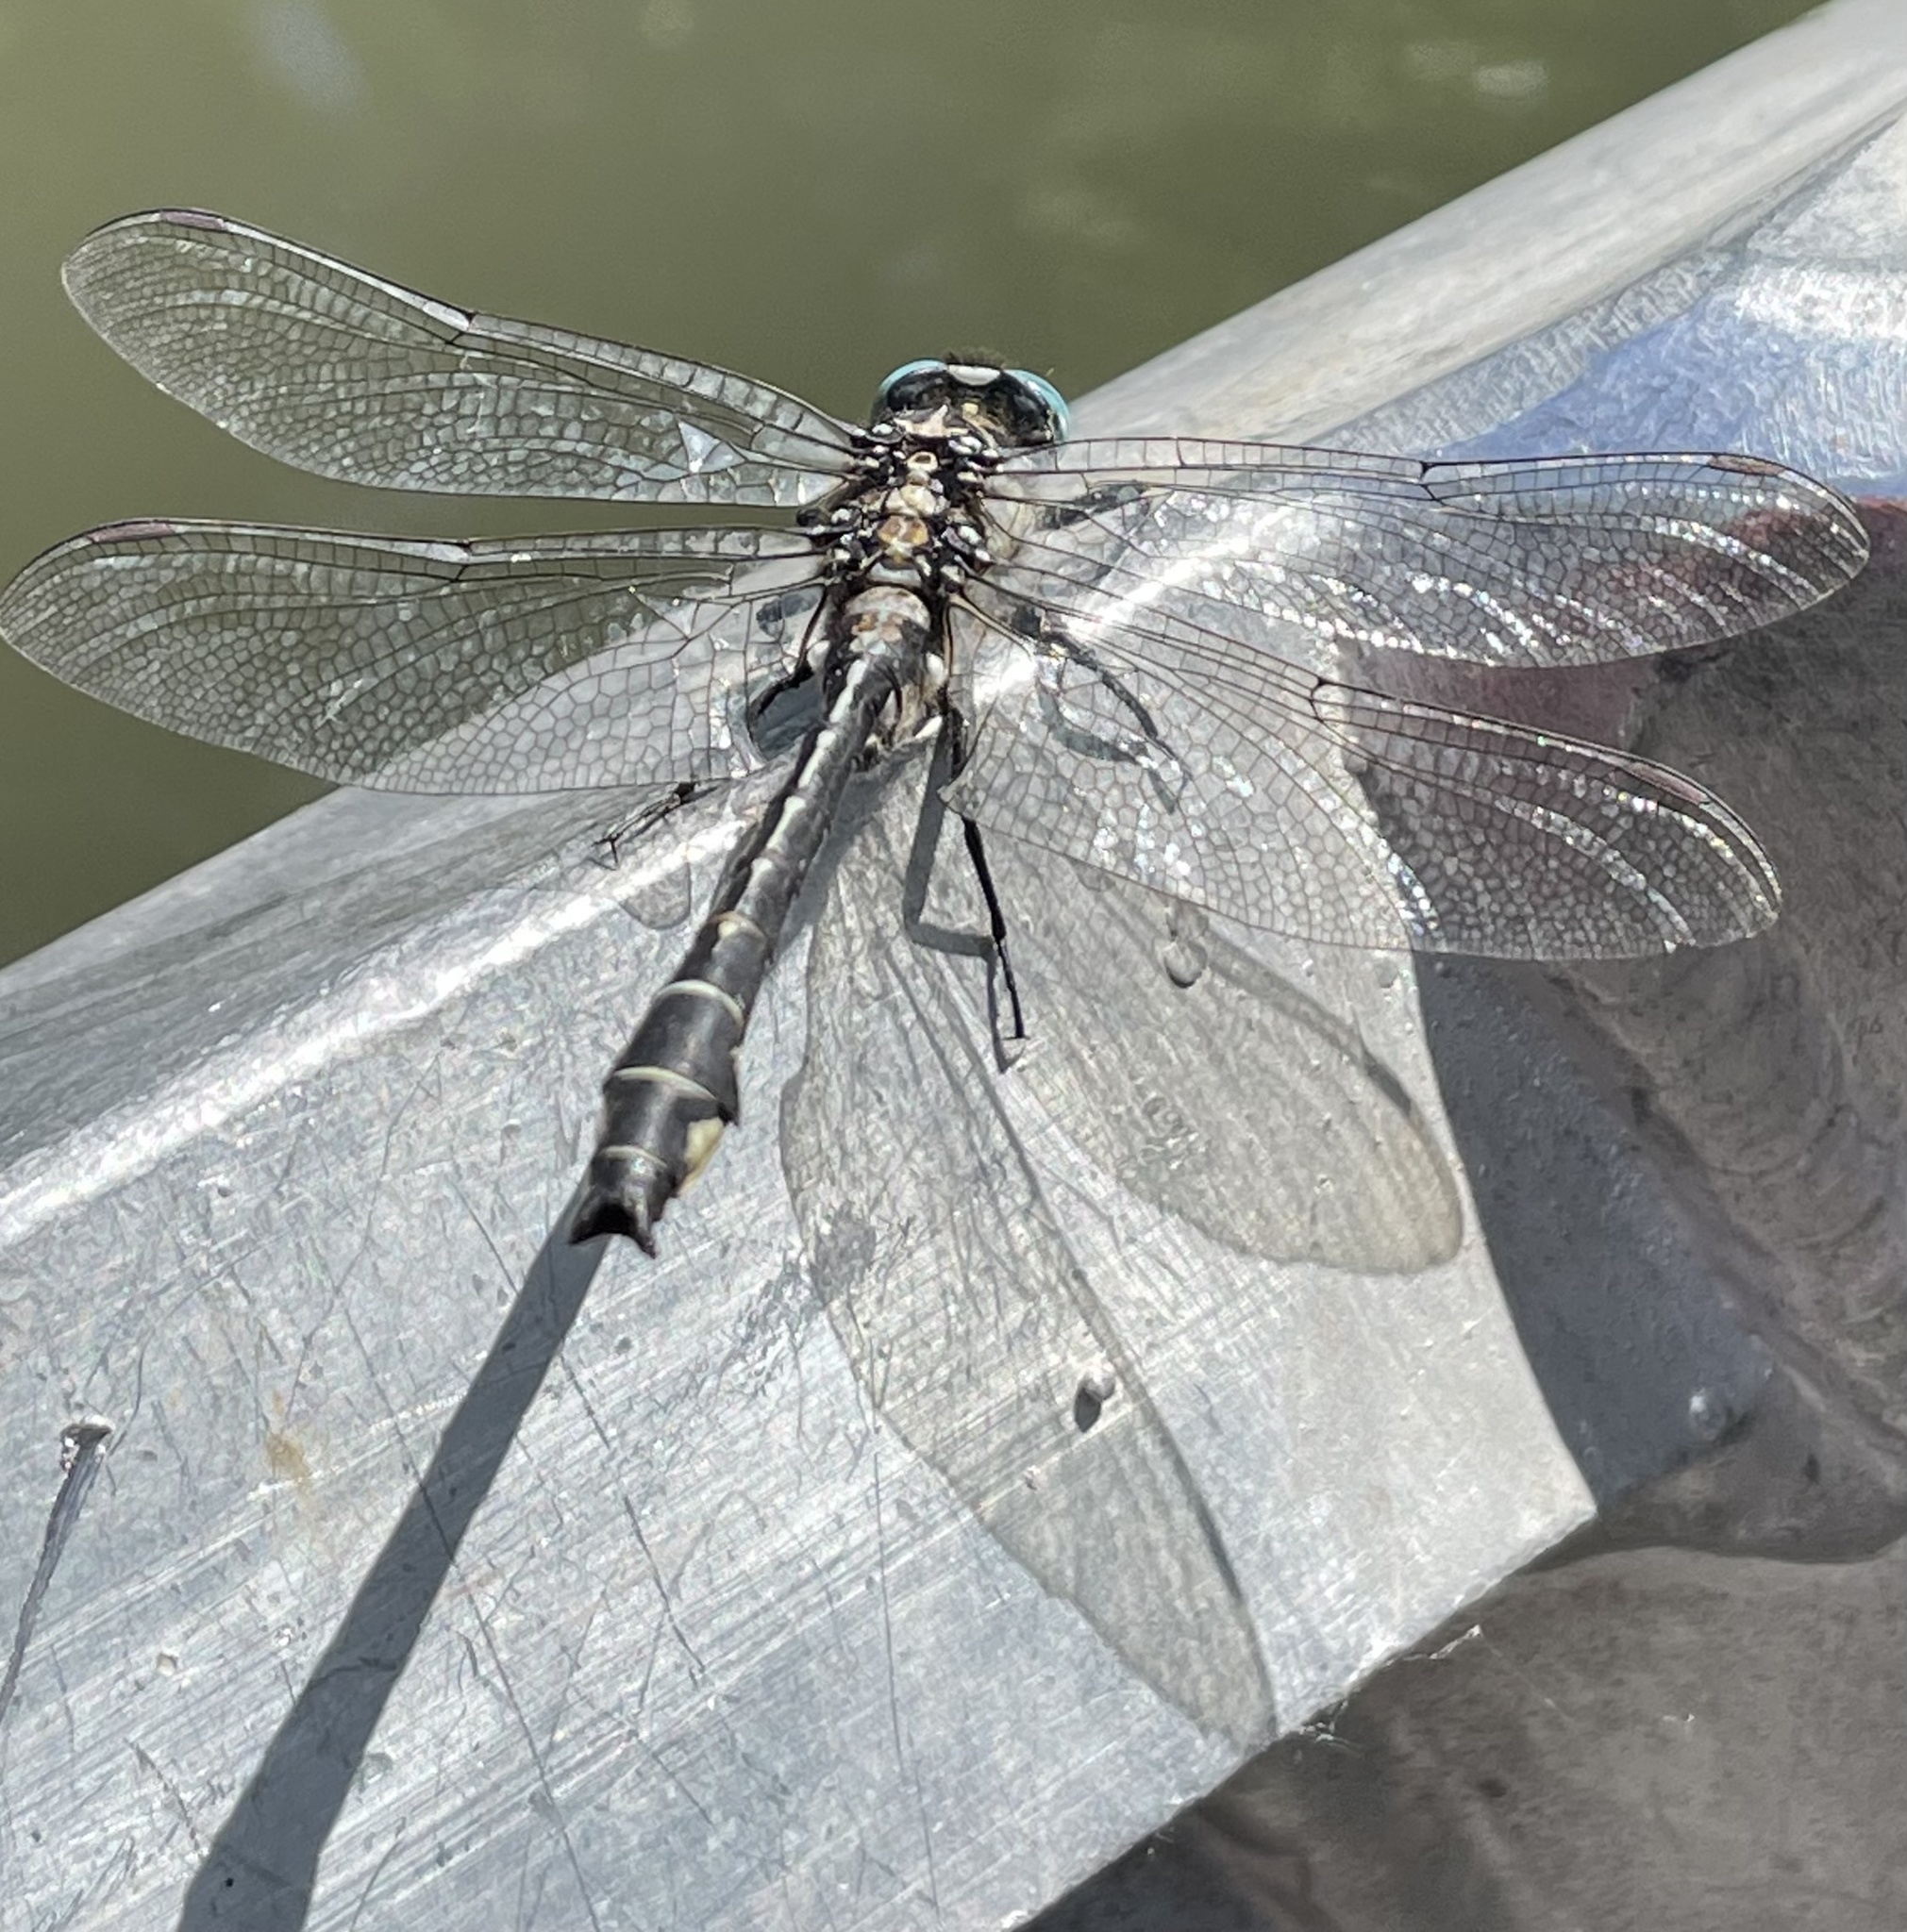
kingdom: Animalia
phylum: Arthropoda
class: Insecta
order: Odonata
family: Gomphidae
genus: Gomphus
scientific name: Gomphus vulgatissimus
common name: Club-tailed dragonfly
